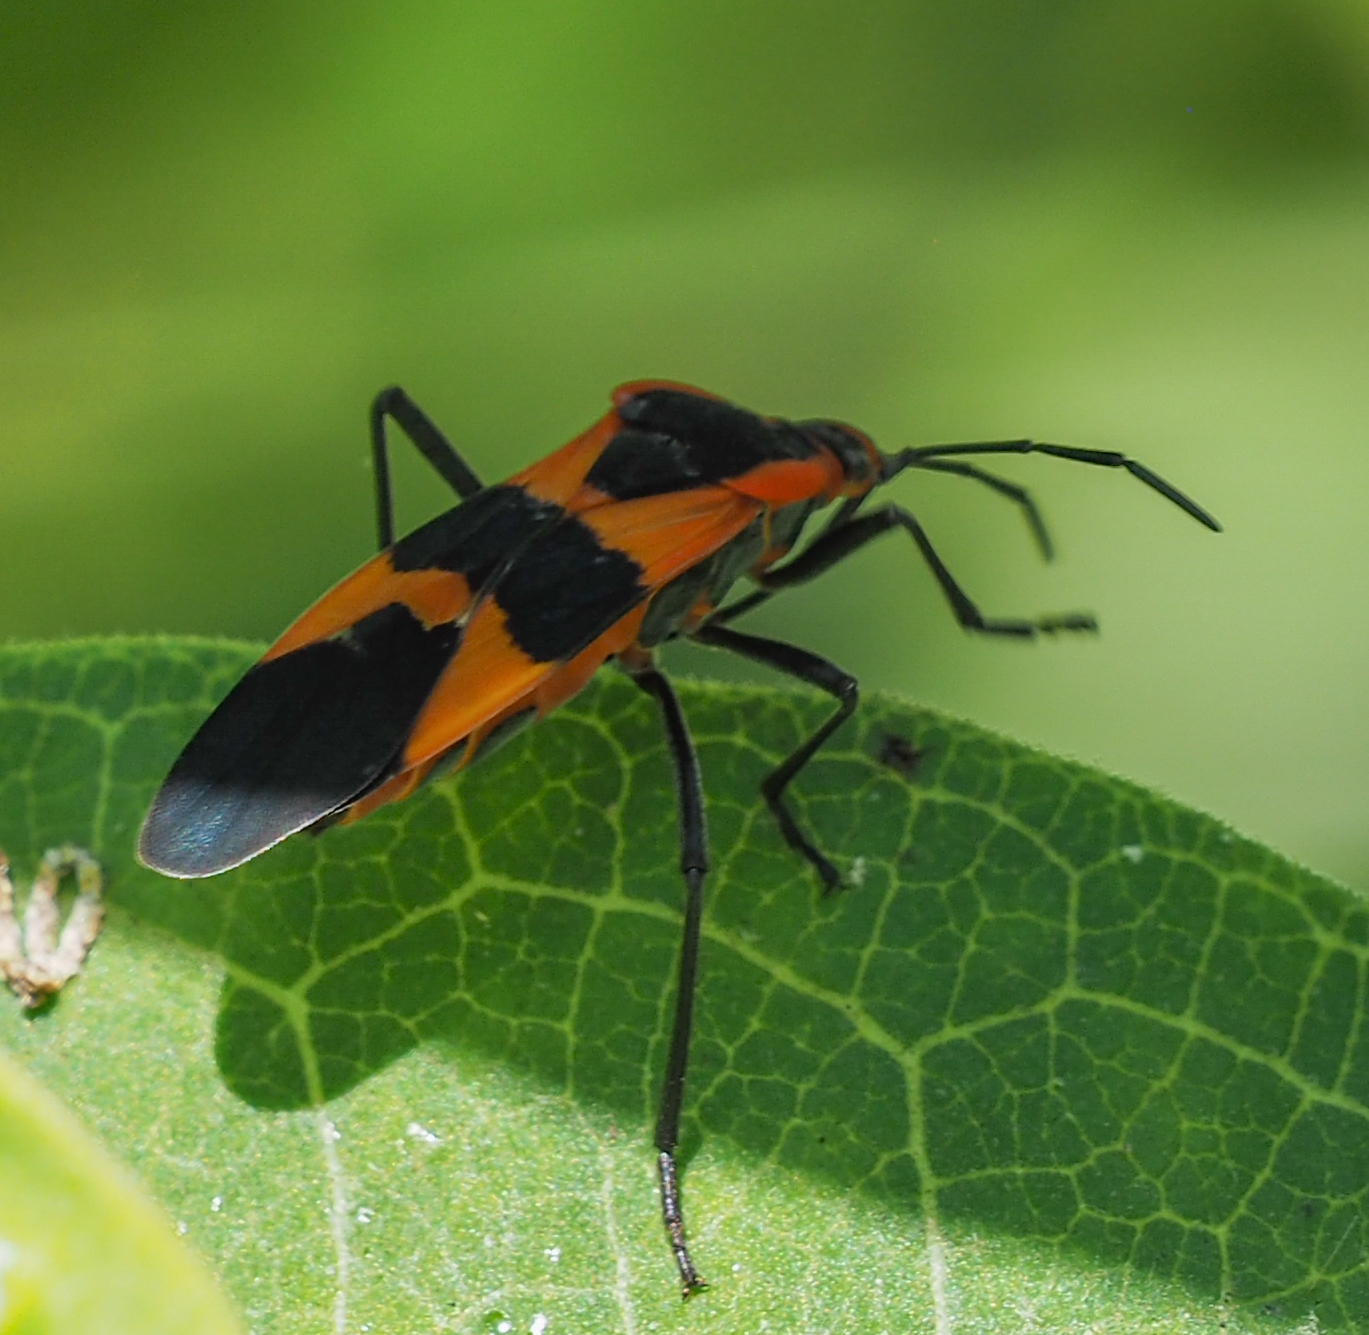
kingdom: Animalia
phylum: Arthropoda
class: Insecta
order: Hemiptera
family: Lygaeidae
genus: Oncopeltus
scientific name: Oncopeltus fasciatus
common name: Large milkweed bug
